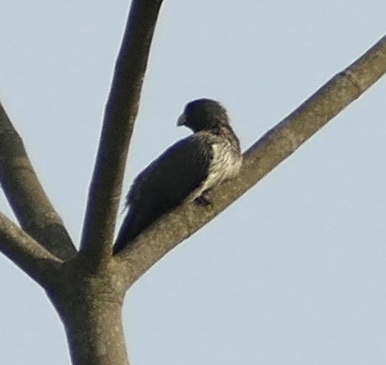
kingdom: Animalia
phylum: Chordata
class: Aves
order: Musophagiformes
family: Musophagidae
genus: Crinifer
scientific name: Crinifer piscator
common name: Western plantain-eater
